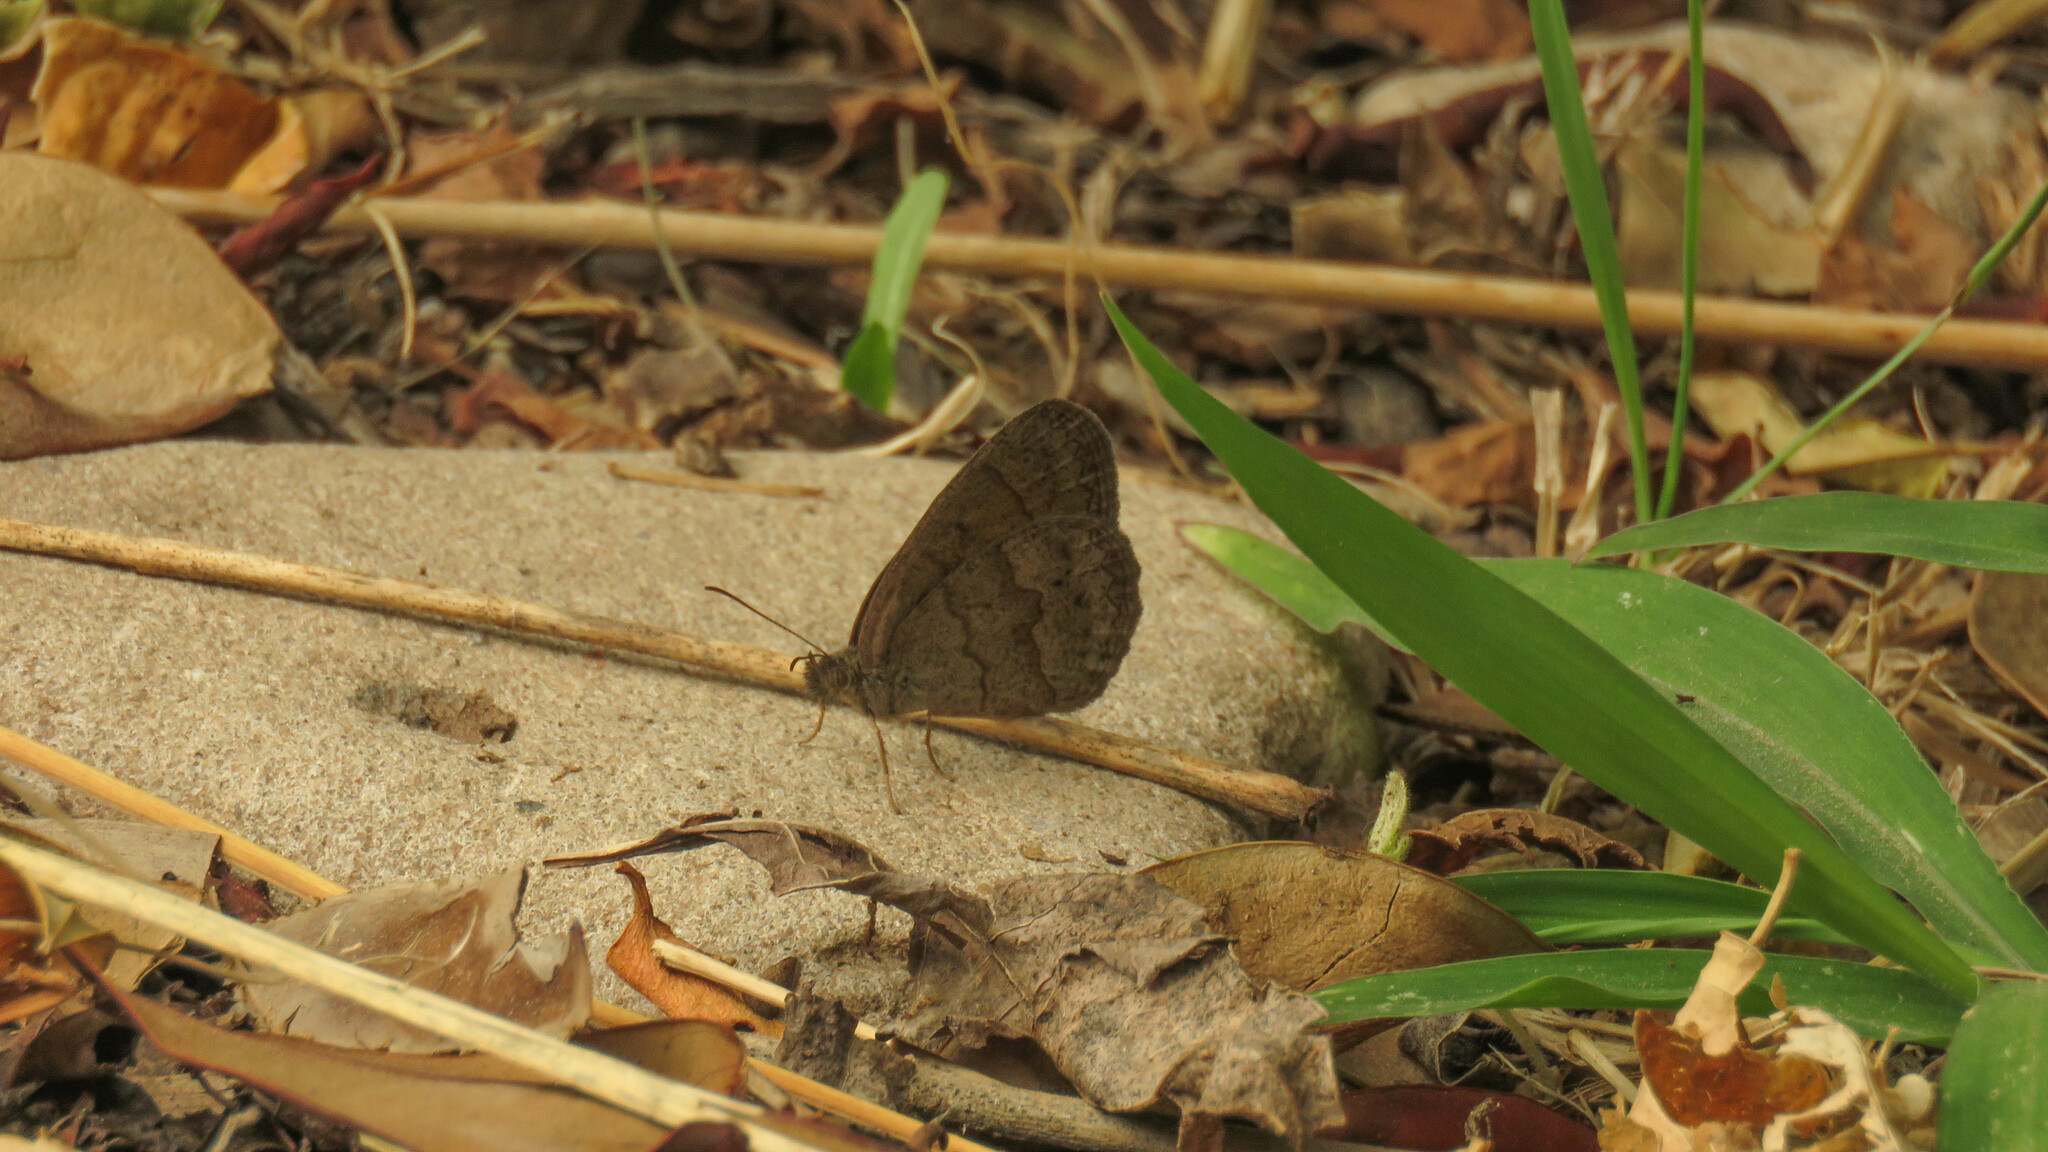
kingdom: Animalia
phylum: Arthropoda
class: Insecta
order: Lepidoptera
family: Nymphalidae
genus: Yphthimoides
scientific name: Yphthimoides celmis
